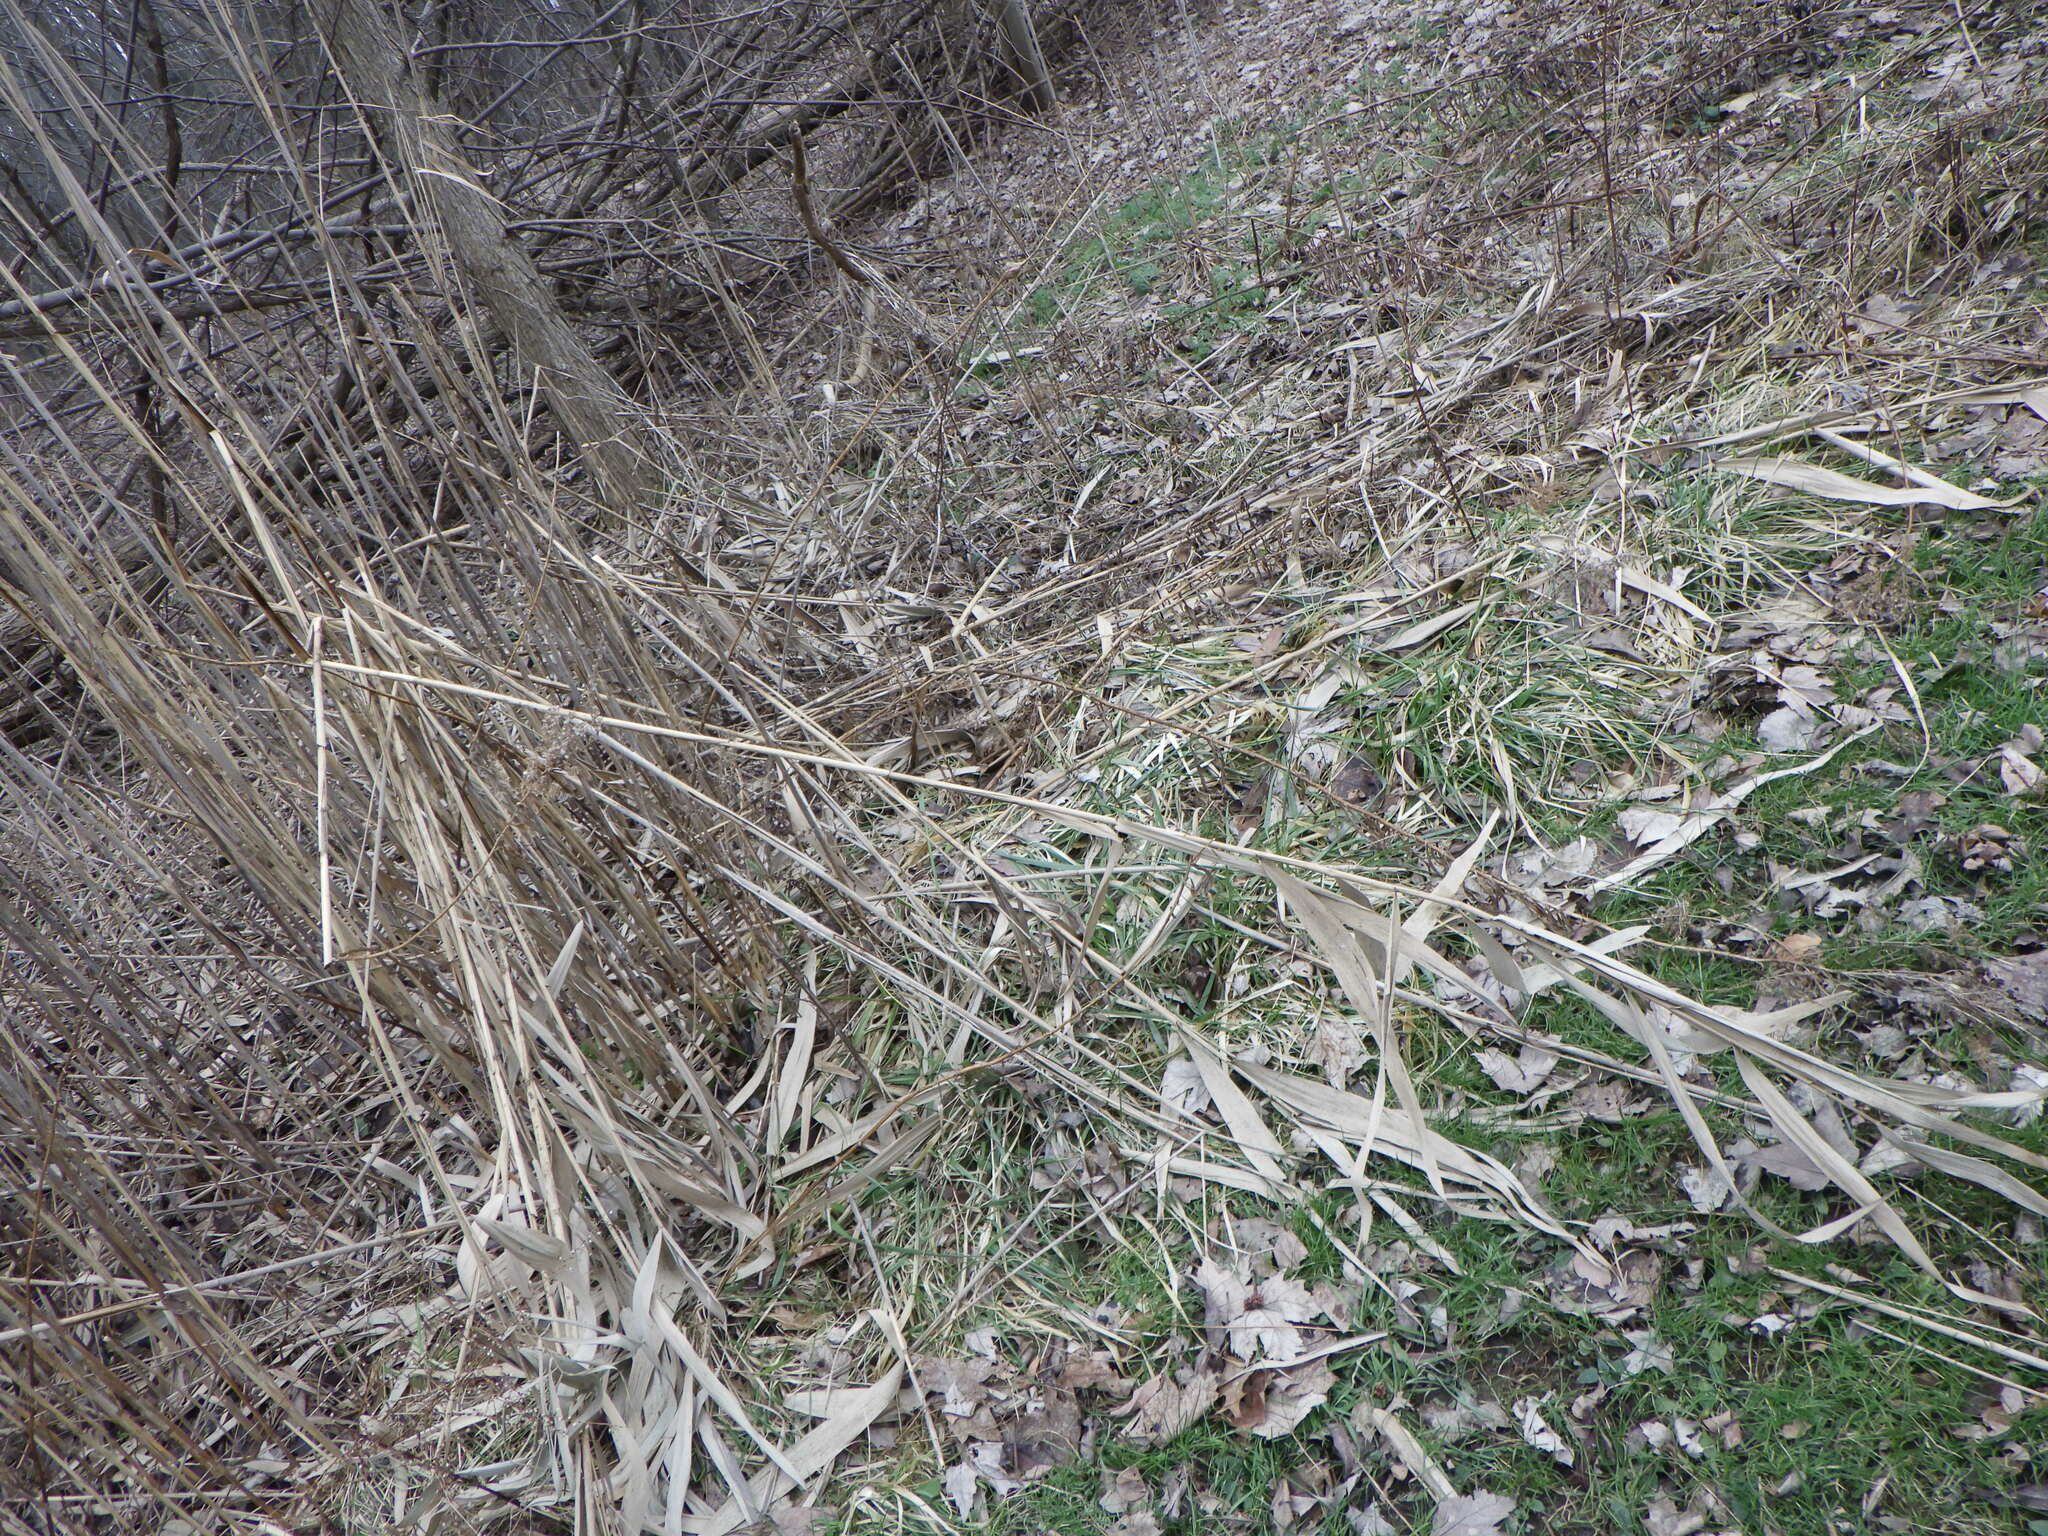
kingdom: Plantae
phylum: Tracheophyta
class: Liliopsida
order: Poales
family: Poaceae
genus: Phragmites
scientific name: Phragmites australis
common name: Common reed
